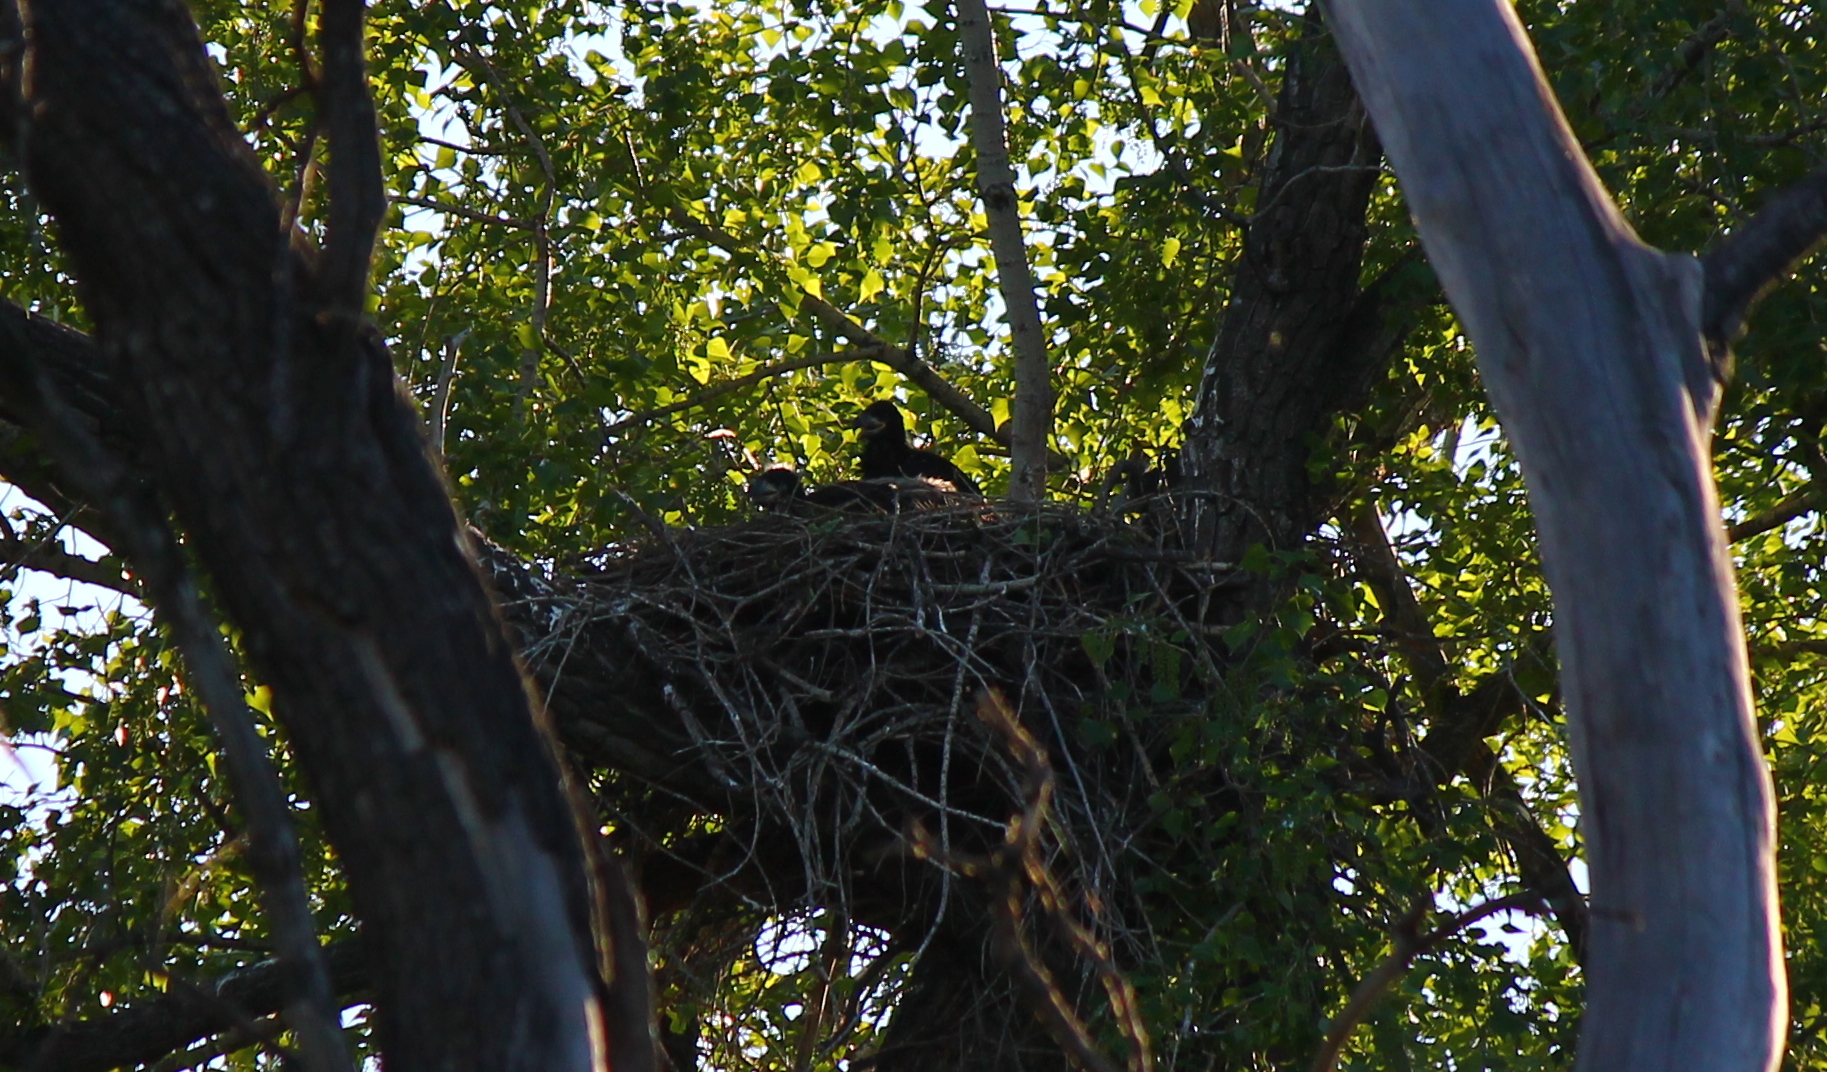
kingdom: Animalia
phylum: Chordata
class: Aves
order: Accipitriformes
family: Accipitridae
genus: Haliaeetus
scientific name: Haliaeetus albicilla
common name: White-tailed eagle
